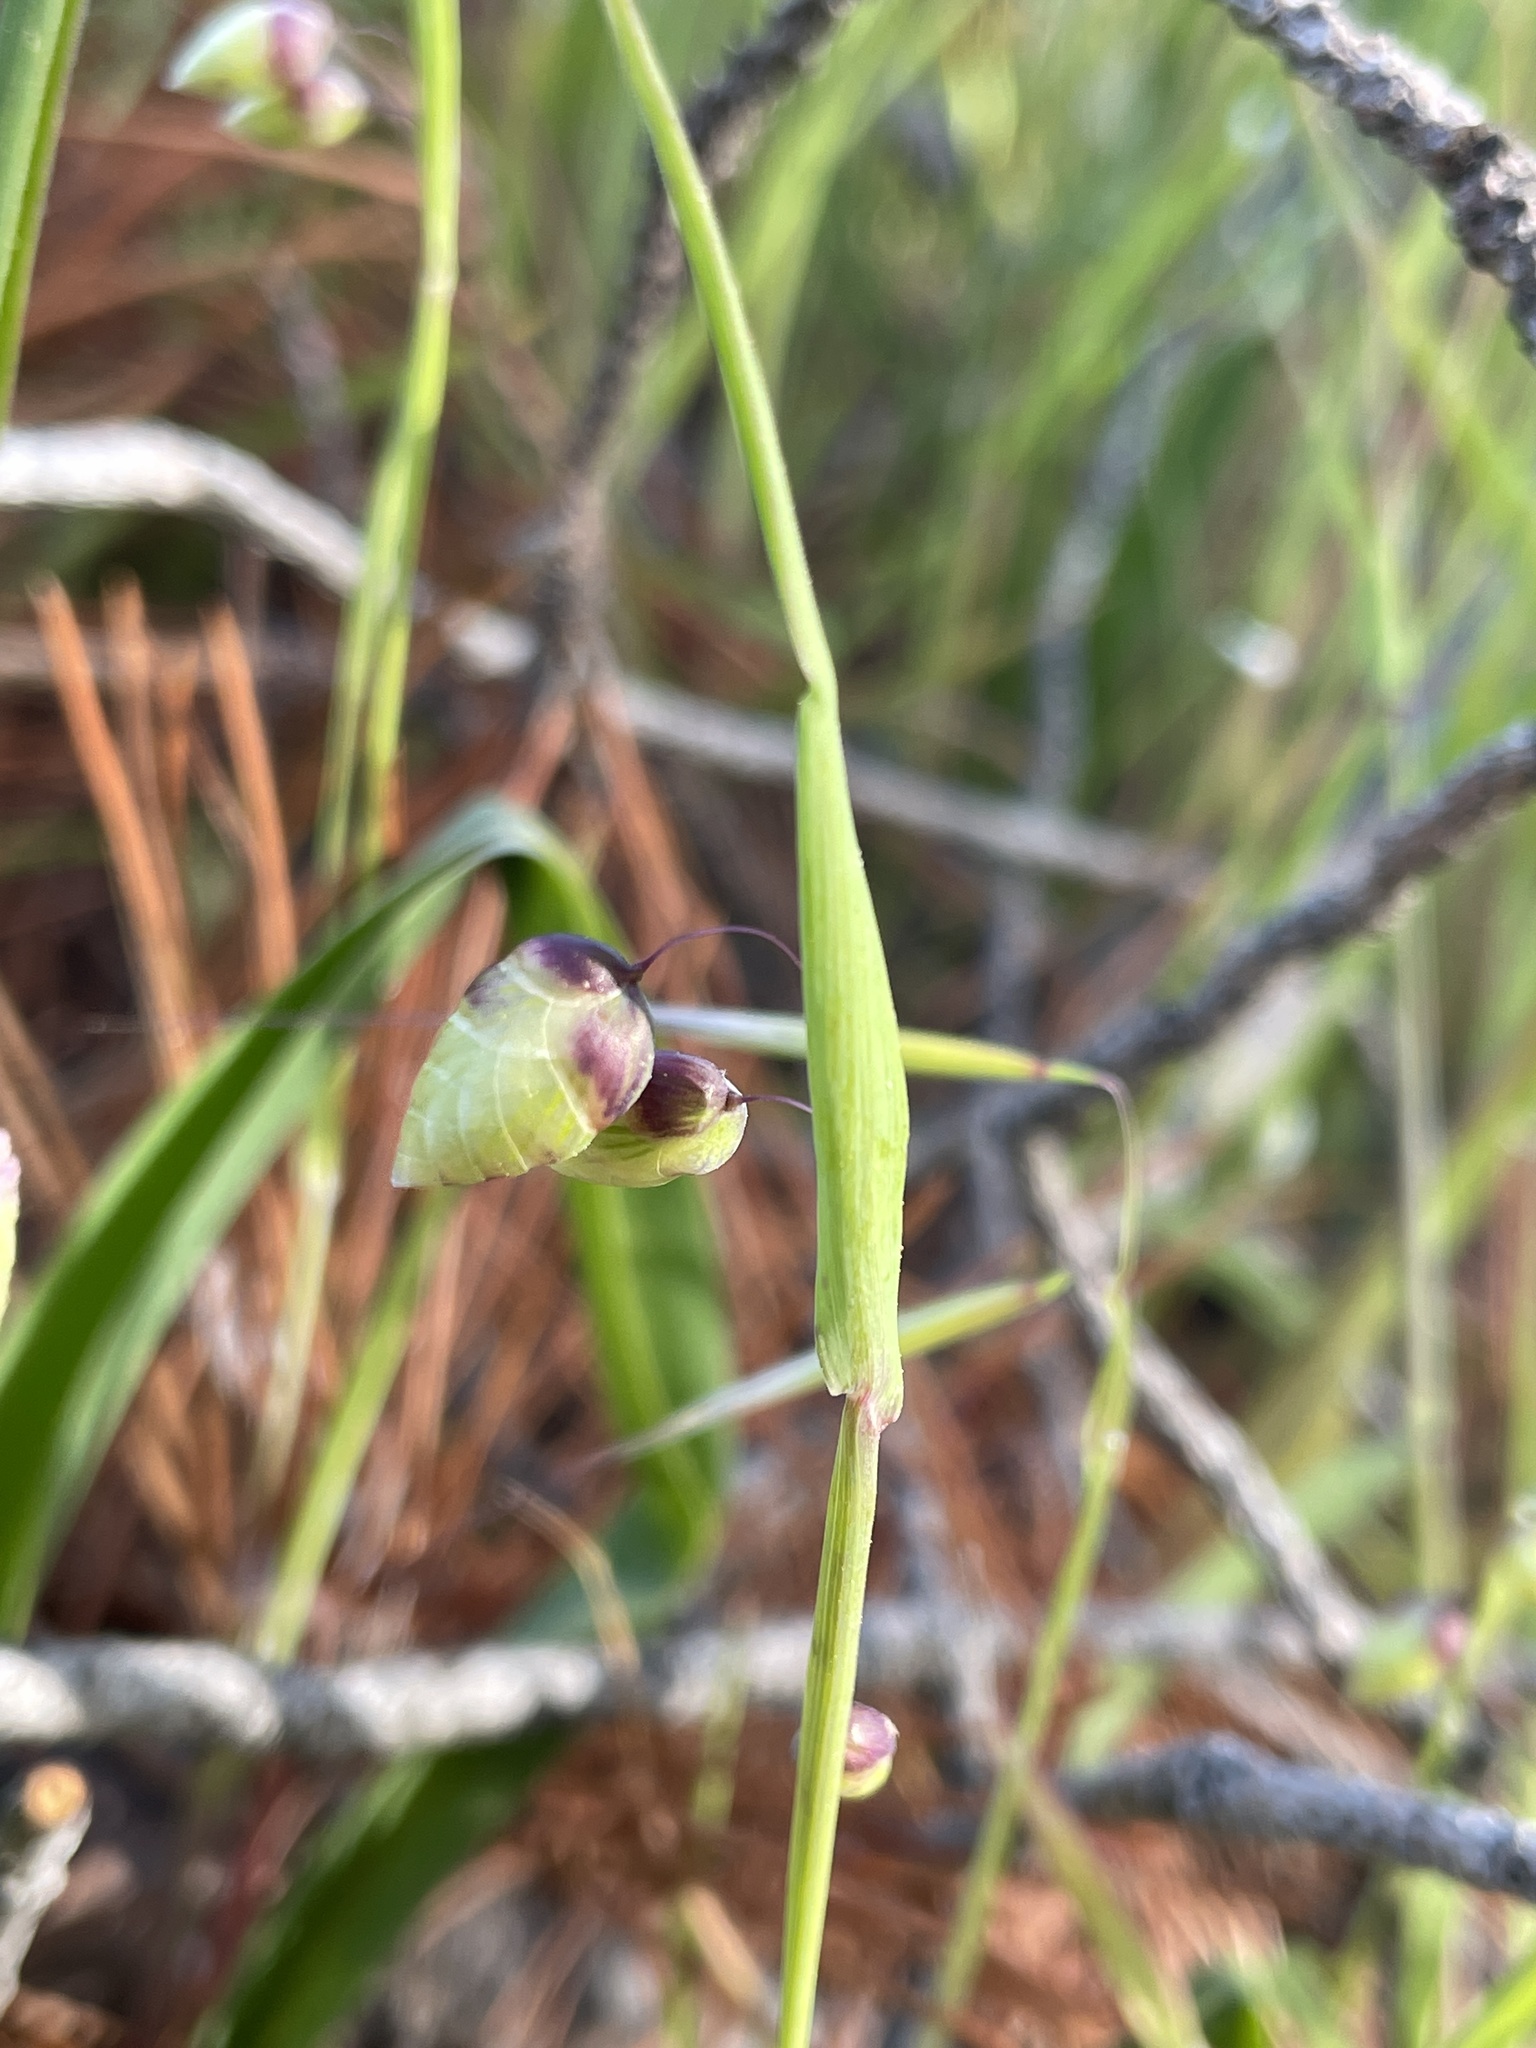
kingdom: Plantae
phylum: Tracheophyta
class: Liliopsida
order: Poales
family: Poaceae
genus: Briza
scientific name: Briza maxima
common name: Big quakinggrass
